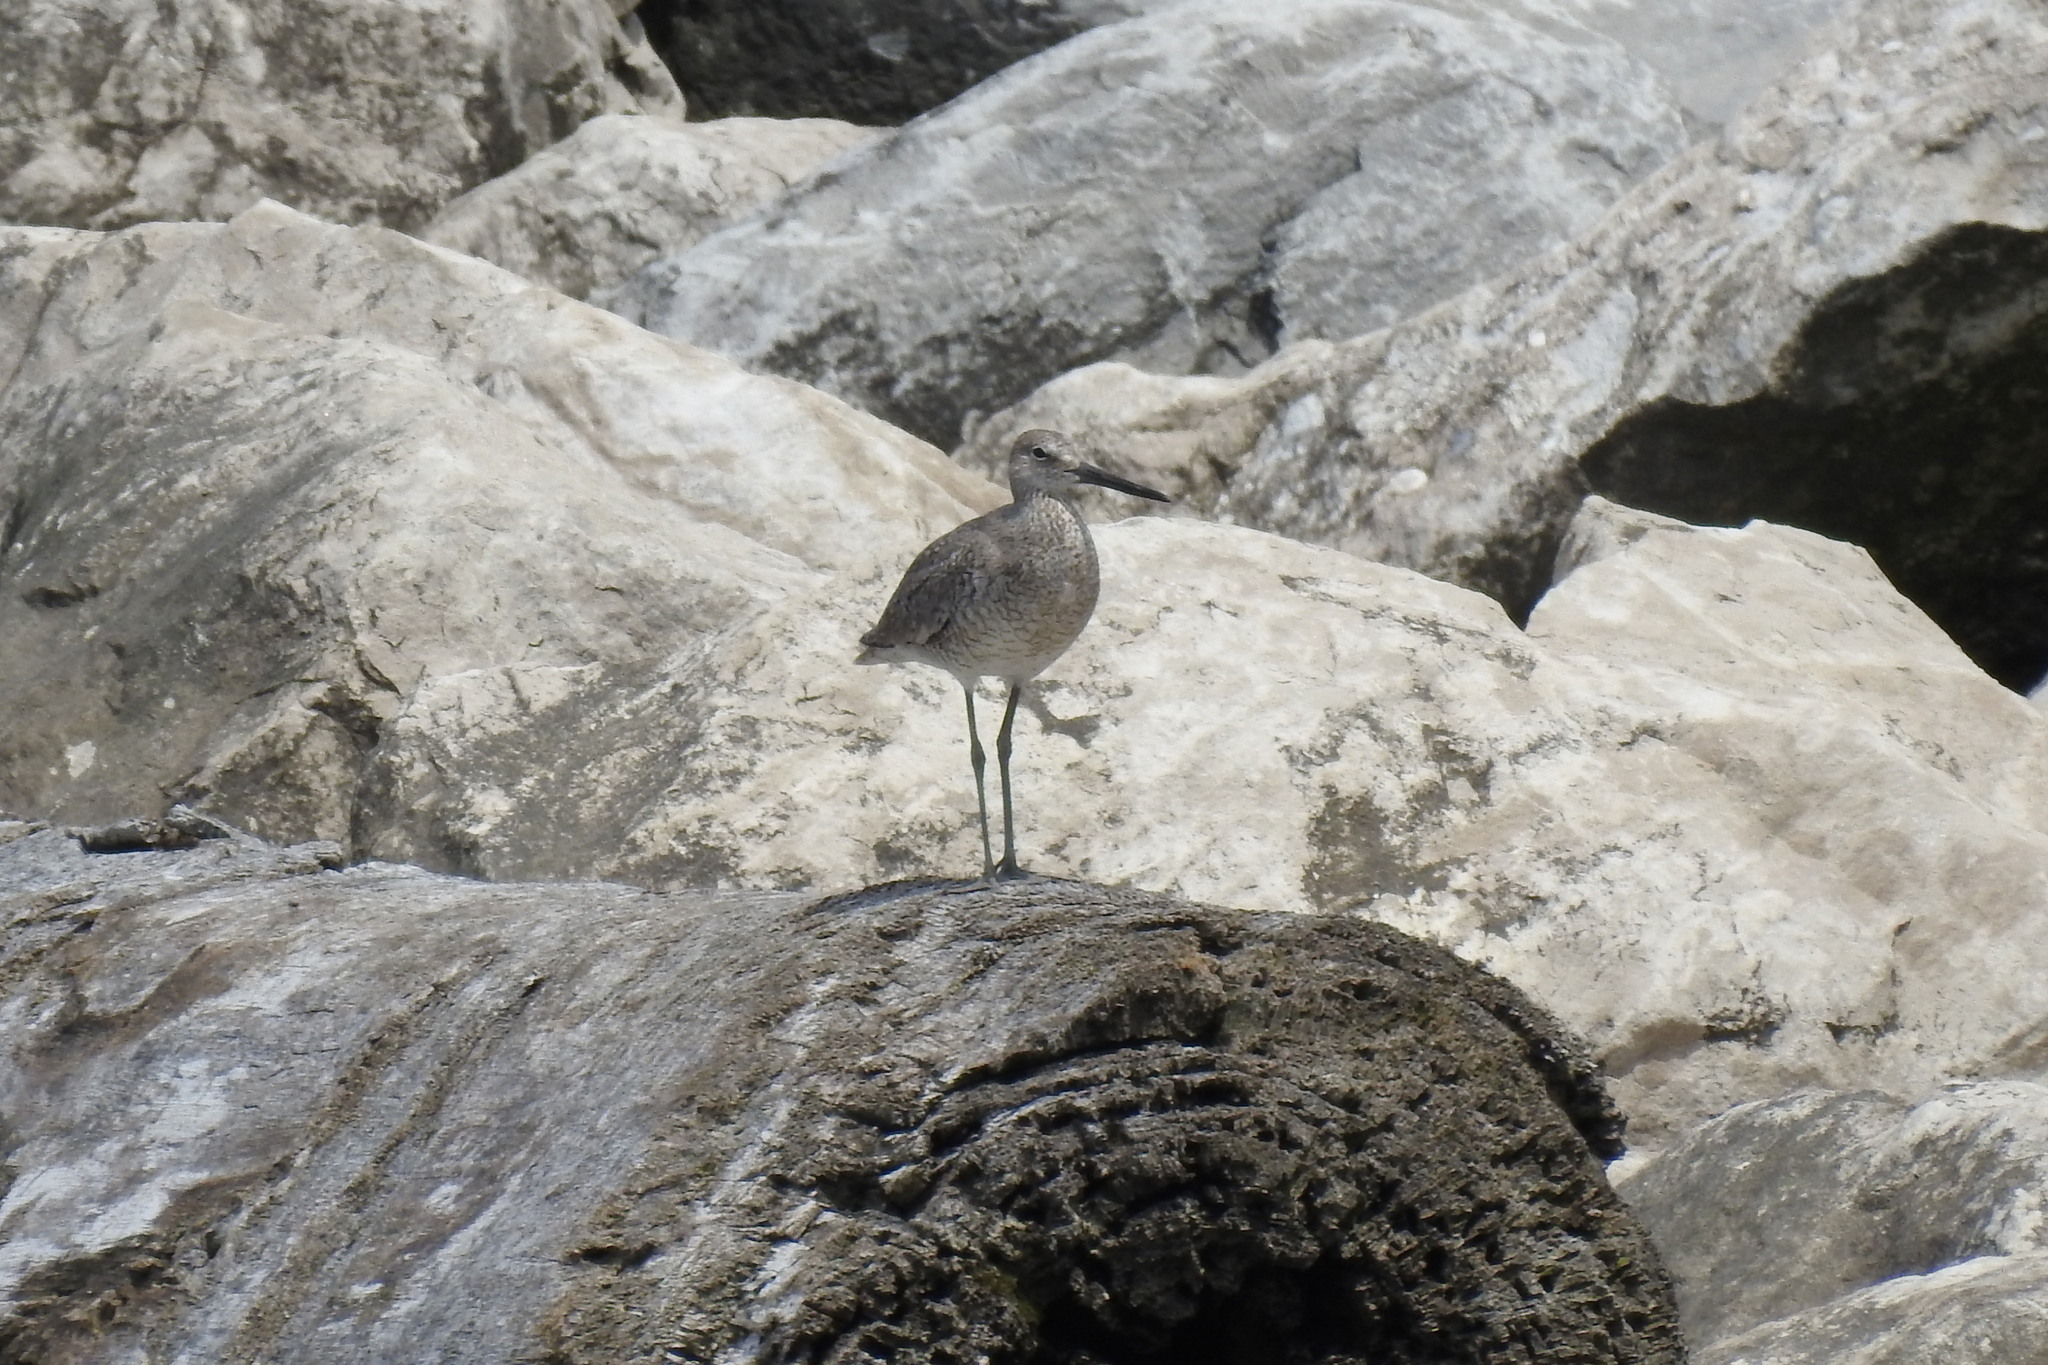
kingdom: Animalia
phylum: Chordata
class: Aves
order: Charadriiformes
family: Scolopacidae
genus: Tringa
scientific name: Tringa semipalmata
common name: Willet
